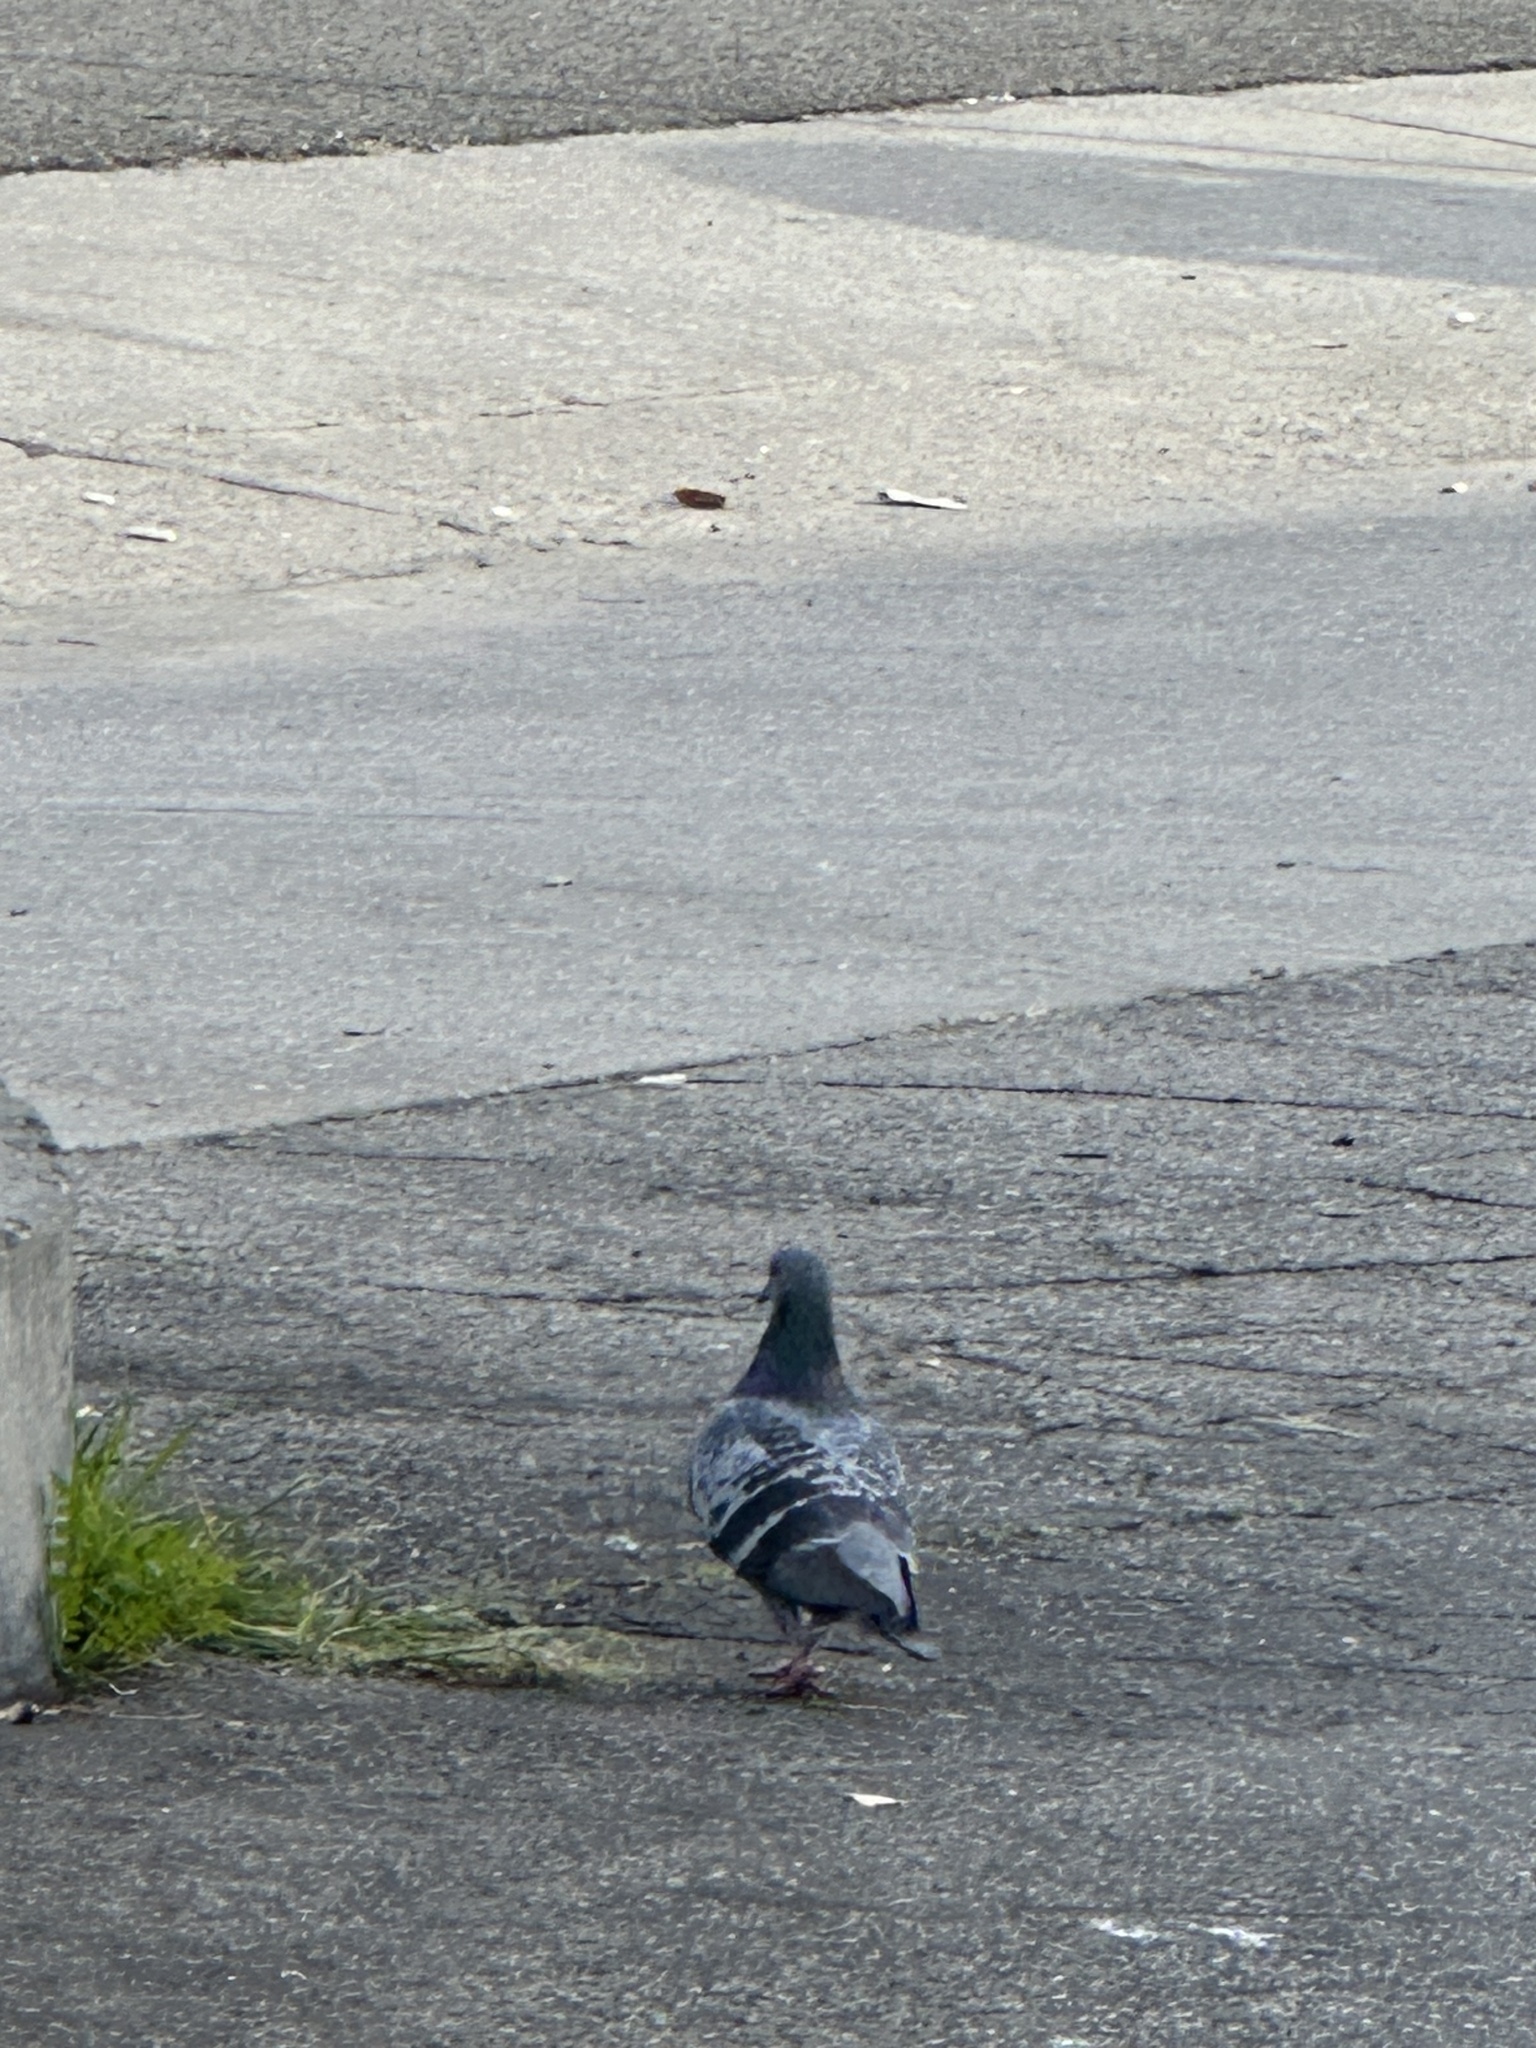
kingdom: Animalia
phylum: Chordata
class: Aves
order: Columbiformes
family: Columbidae
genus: Columba
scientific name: Columba livia
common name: Rock pigeon
